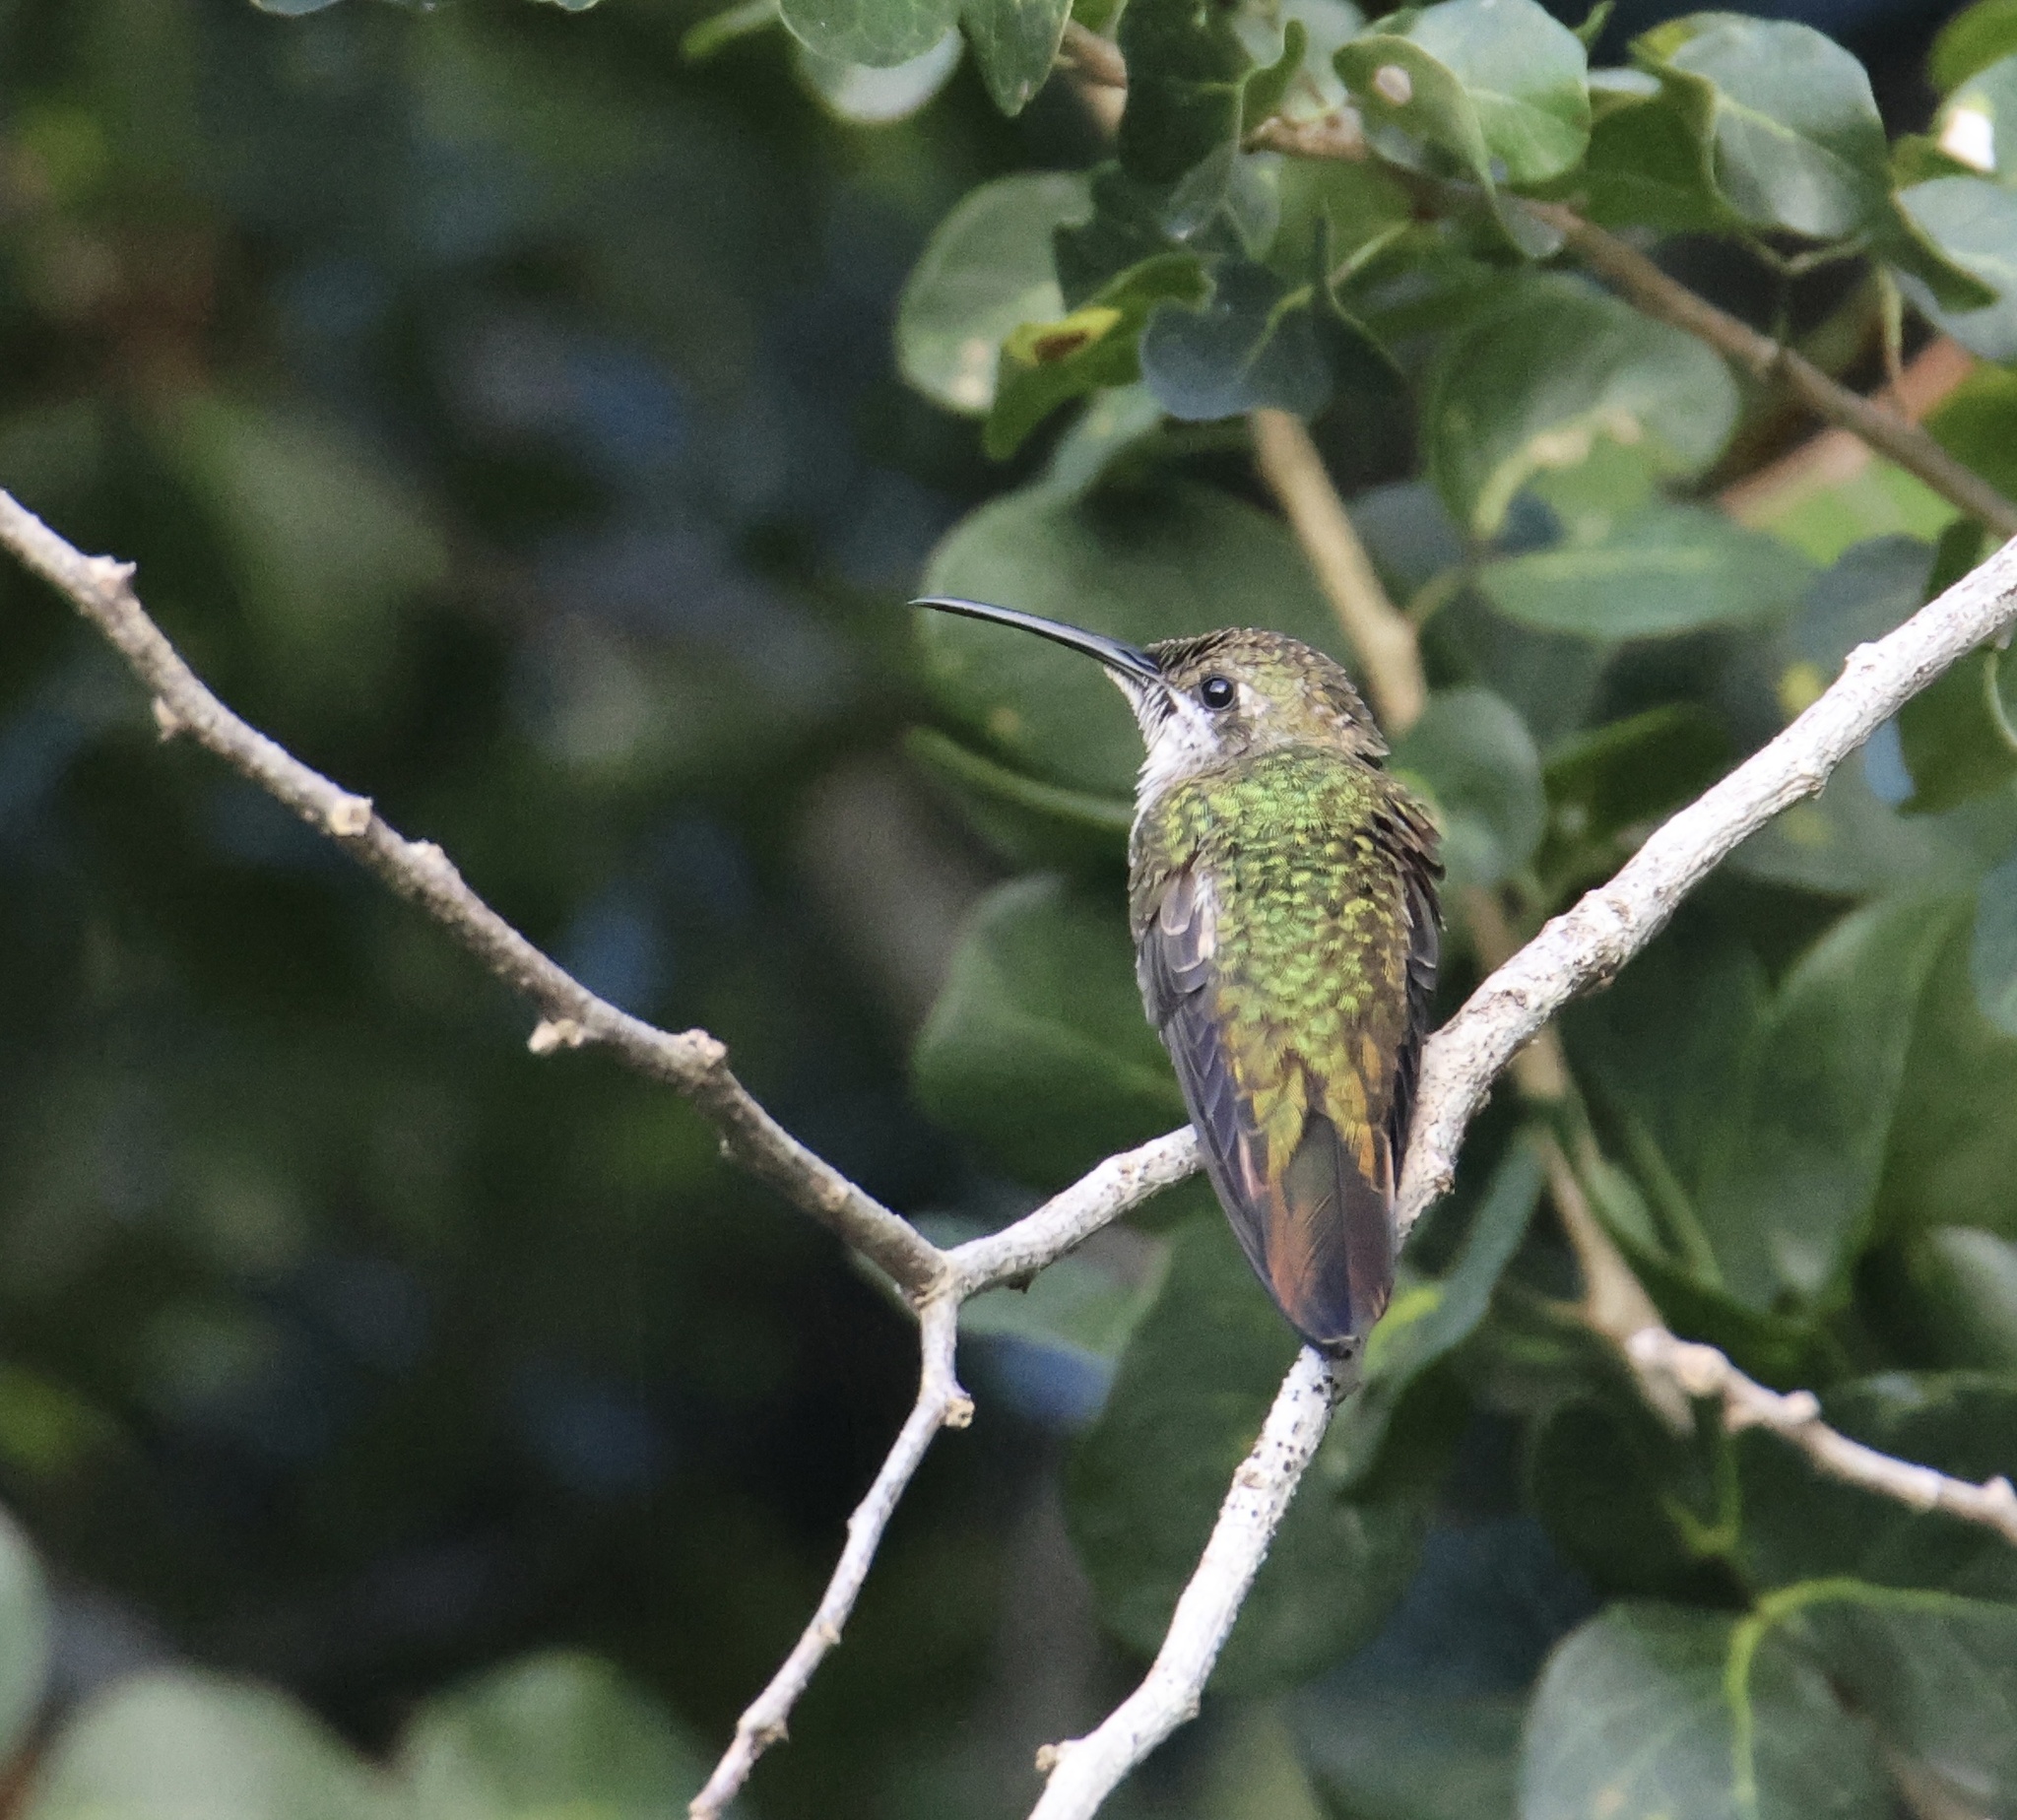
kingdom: Animalia
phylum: Chordata
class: Aves
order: Apodiformes
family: Trochilidae
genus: Anthracothorax
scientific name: Anthracothorax dominicus
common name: Antillean mango
